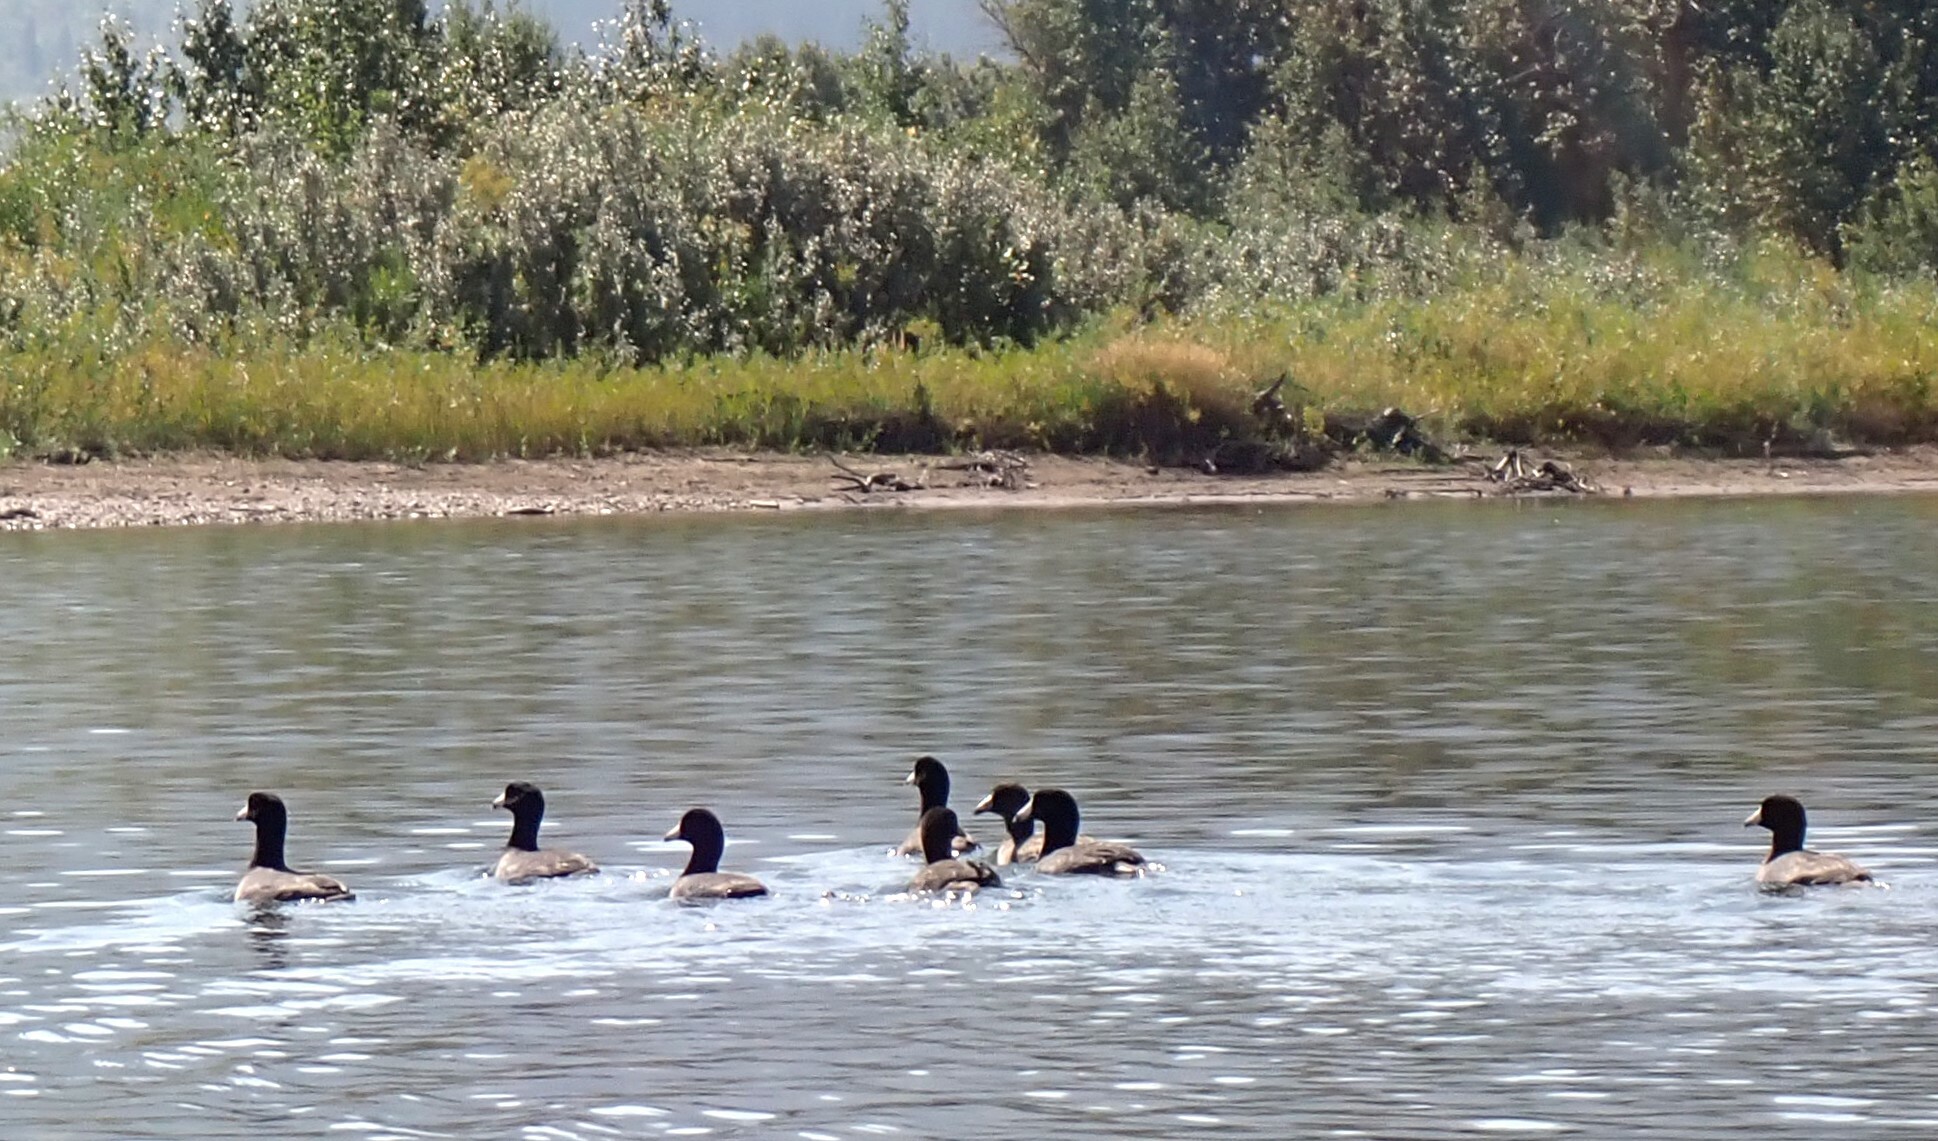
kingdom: Animalia
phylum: Chordata
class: Aves
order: Gruiformes
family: Rallidae
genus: Fulica
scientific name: Fulica americana
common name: American coot
